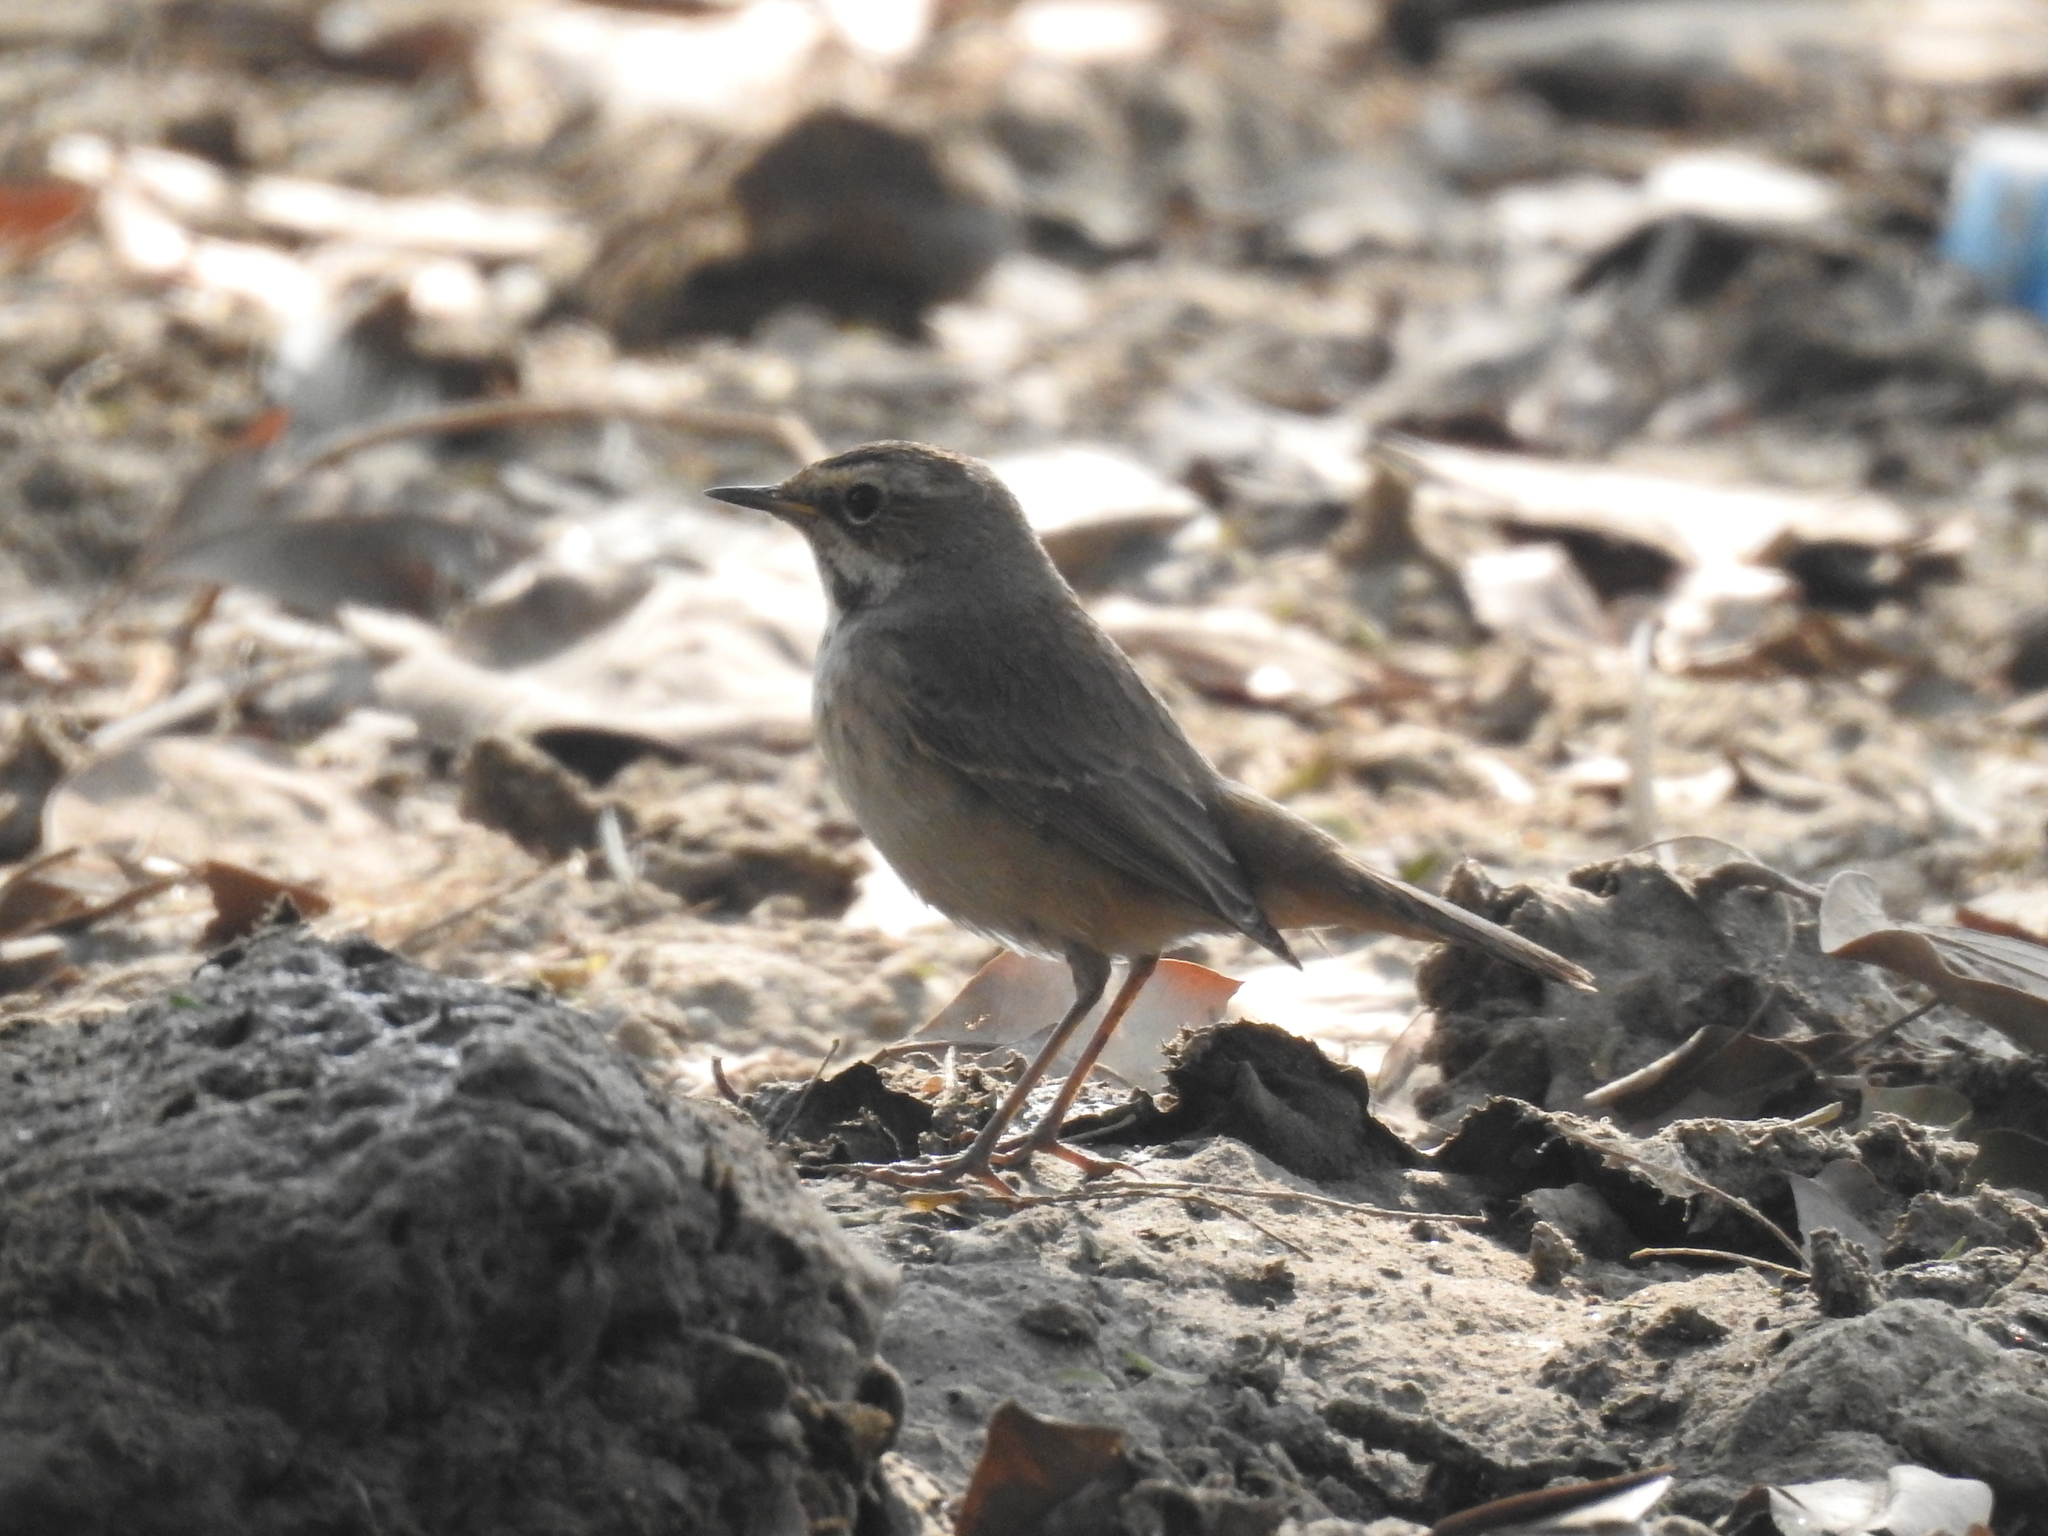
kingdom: Animalia
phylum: Chordata
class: Aves
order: Passeriformes
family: Muscicapidae
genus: Luscinia
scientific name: Luscinia svecica
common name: Bluethroat
